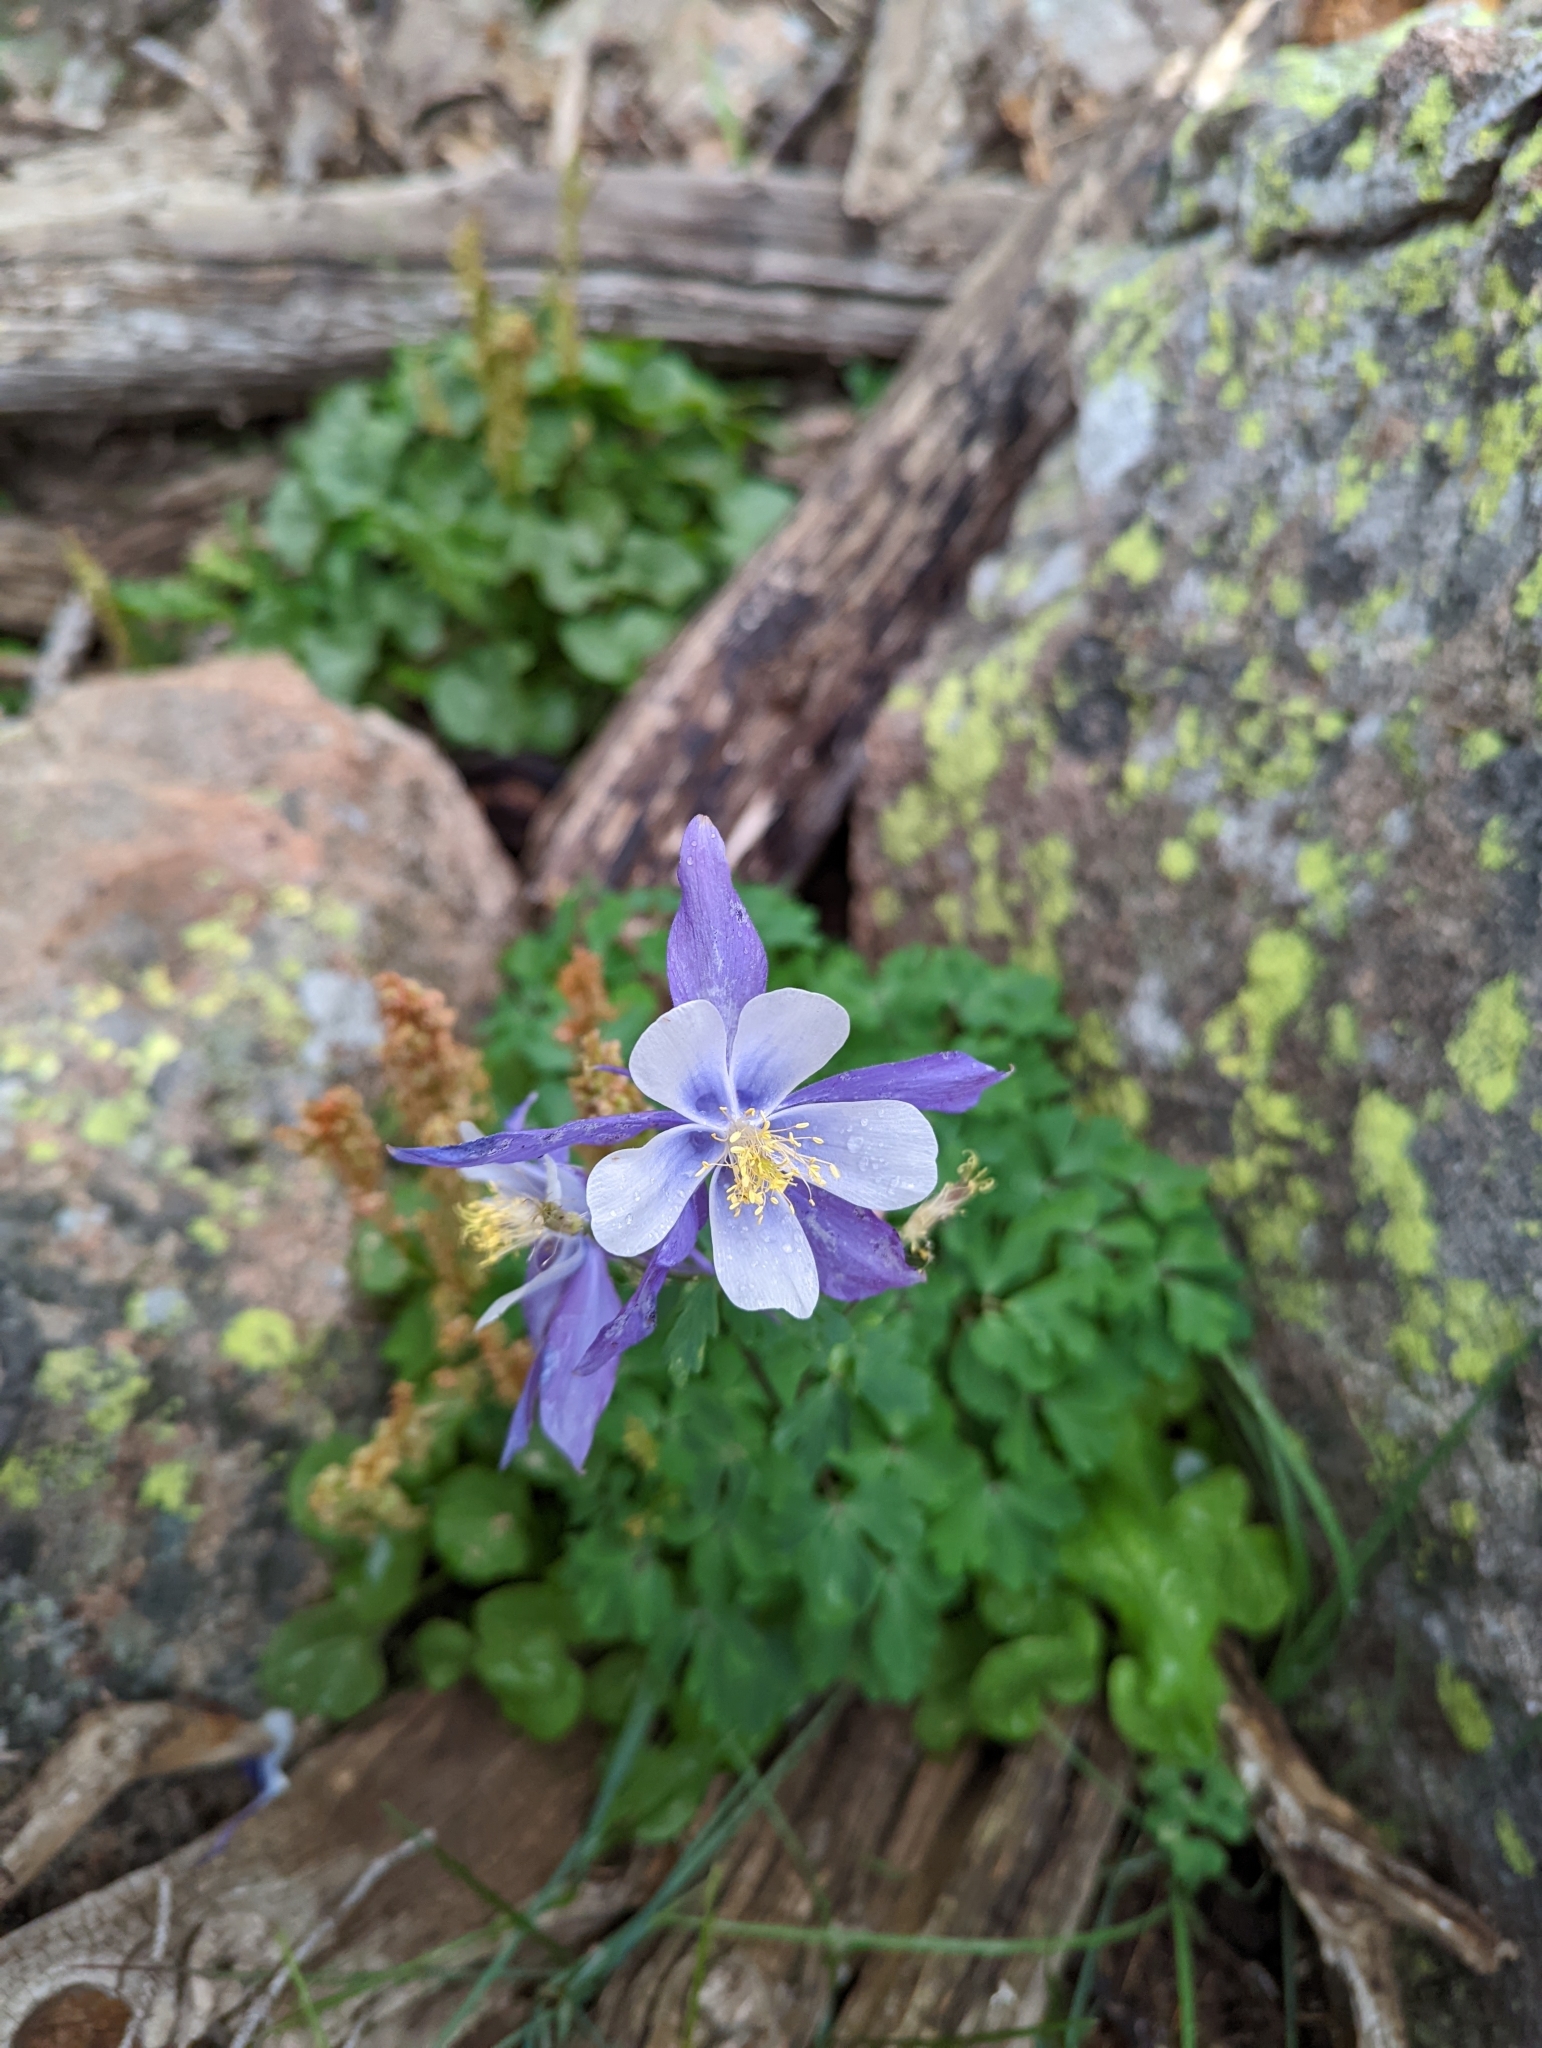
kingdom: Plantae
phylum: Tracheophyta
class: Magnoliopsida
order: Ranunculales
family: Ranunculaceae
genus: Aquilegia
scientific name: Aquilegia coerulea
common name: Rocky mountain columbine
